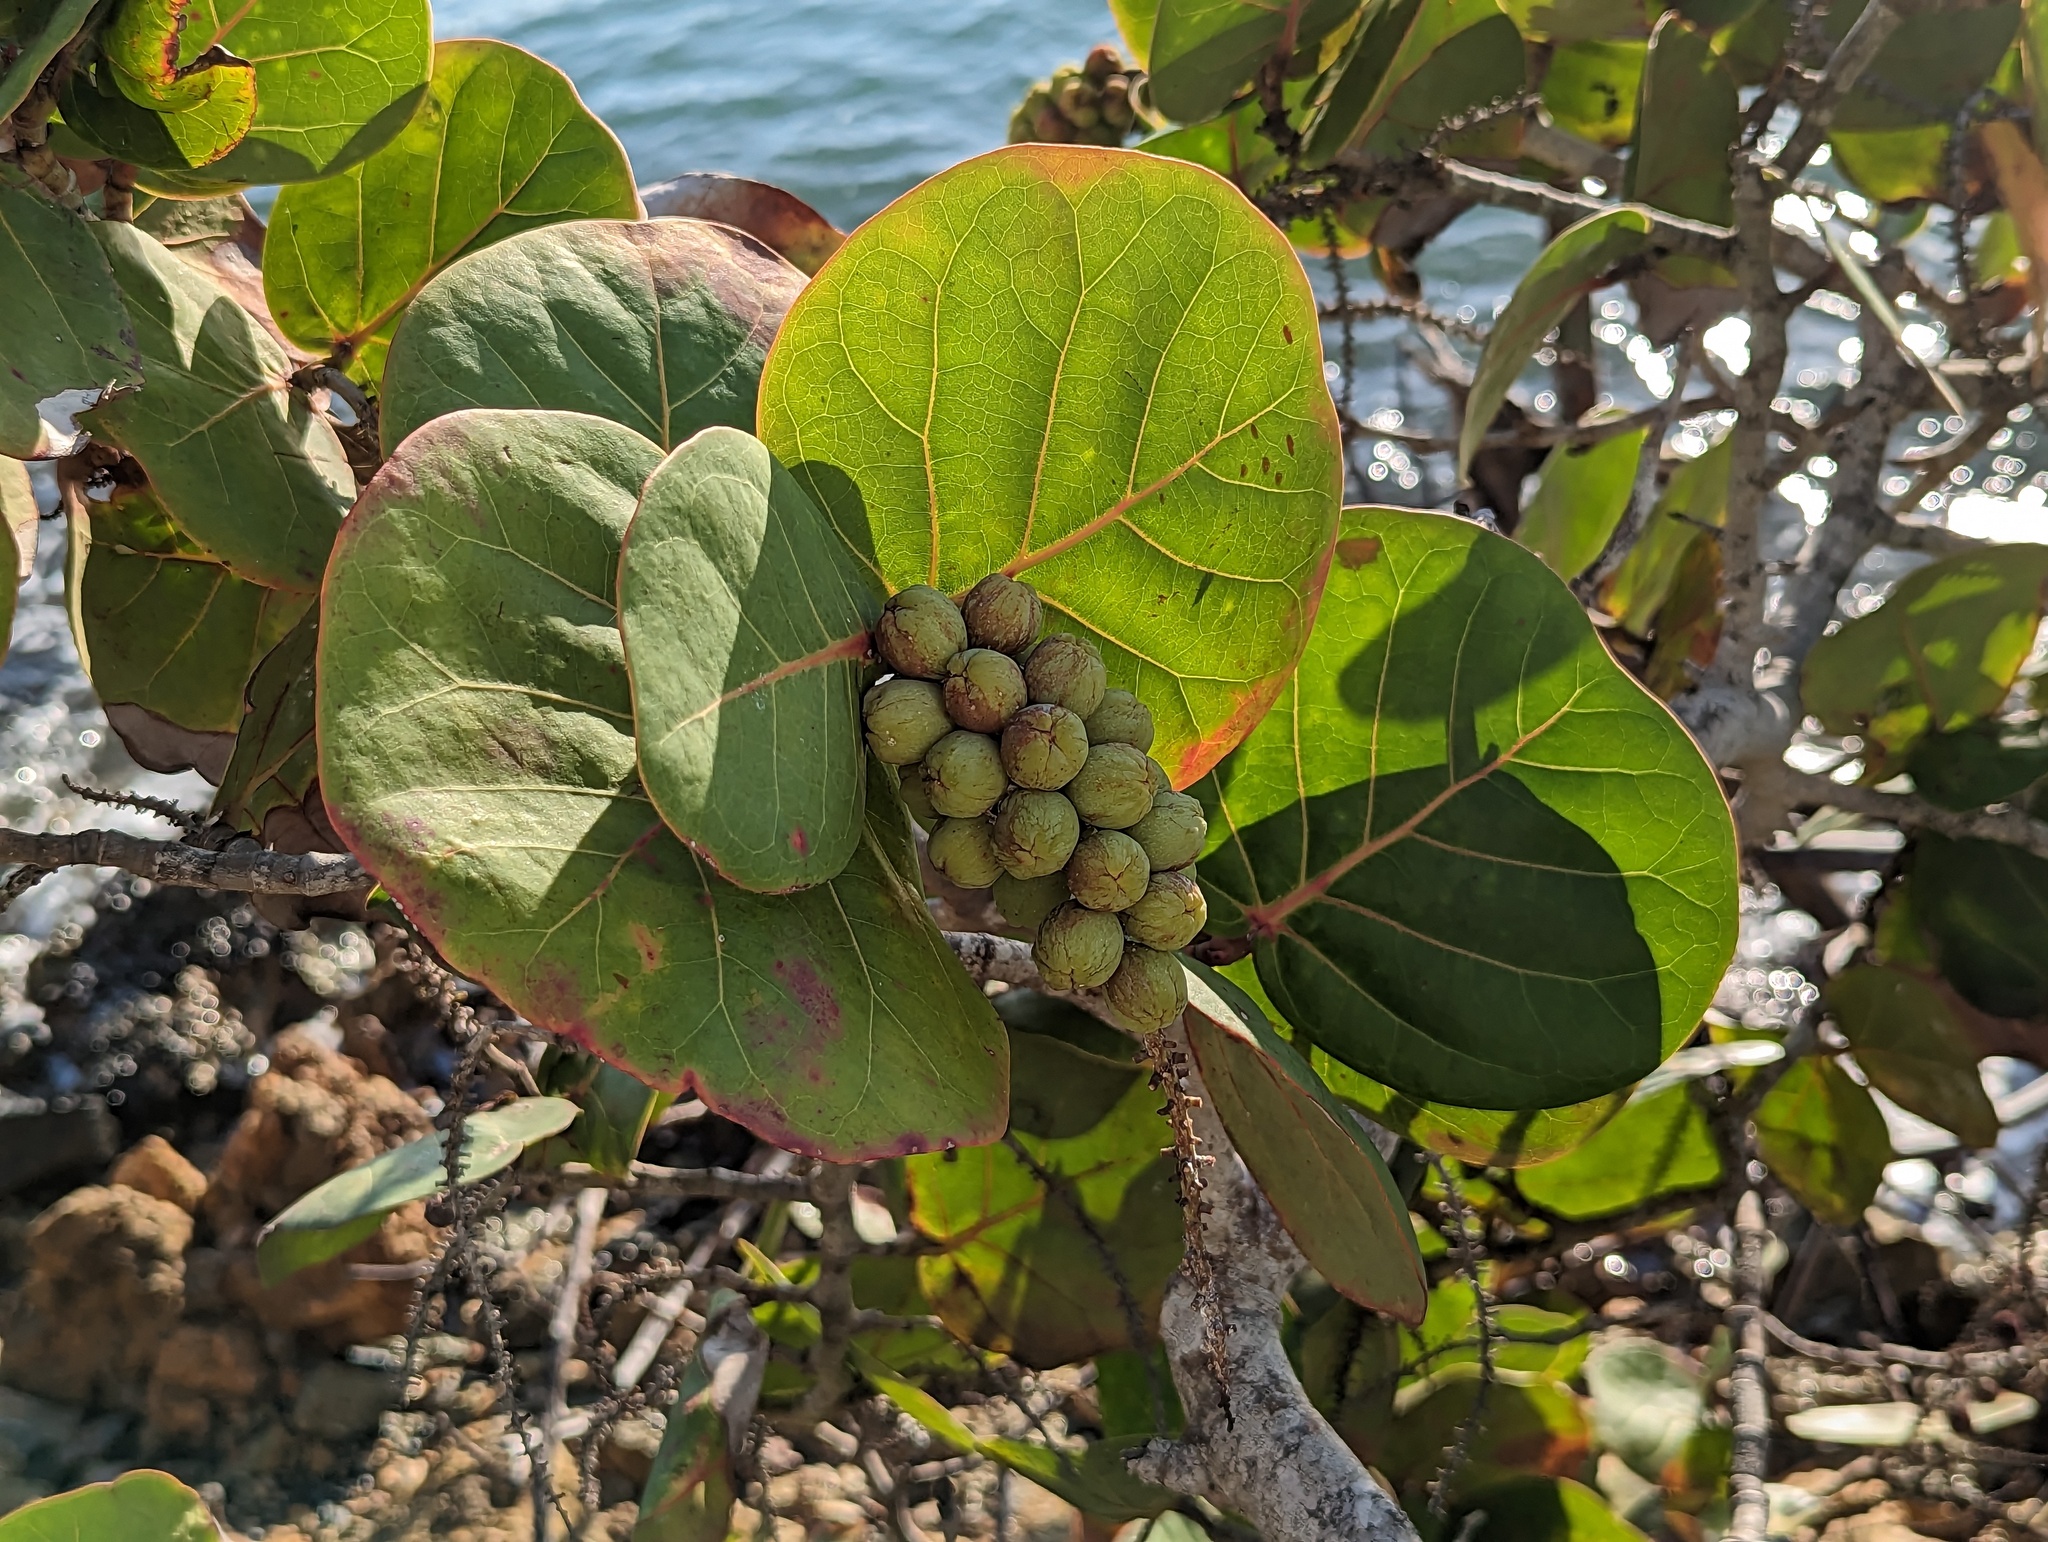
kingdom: Plantae
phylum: Tracheophyta
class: Magnoliopsida
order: Caryophyllales
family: Polygonaceae
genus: Coccoloba
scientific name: Coccoloba uvifera
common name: Seagrape
